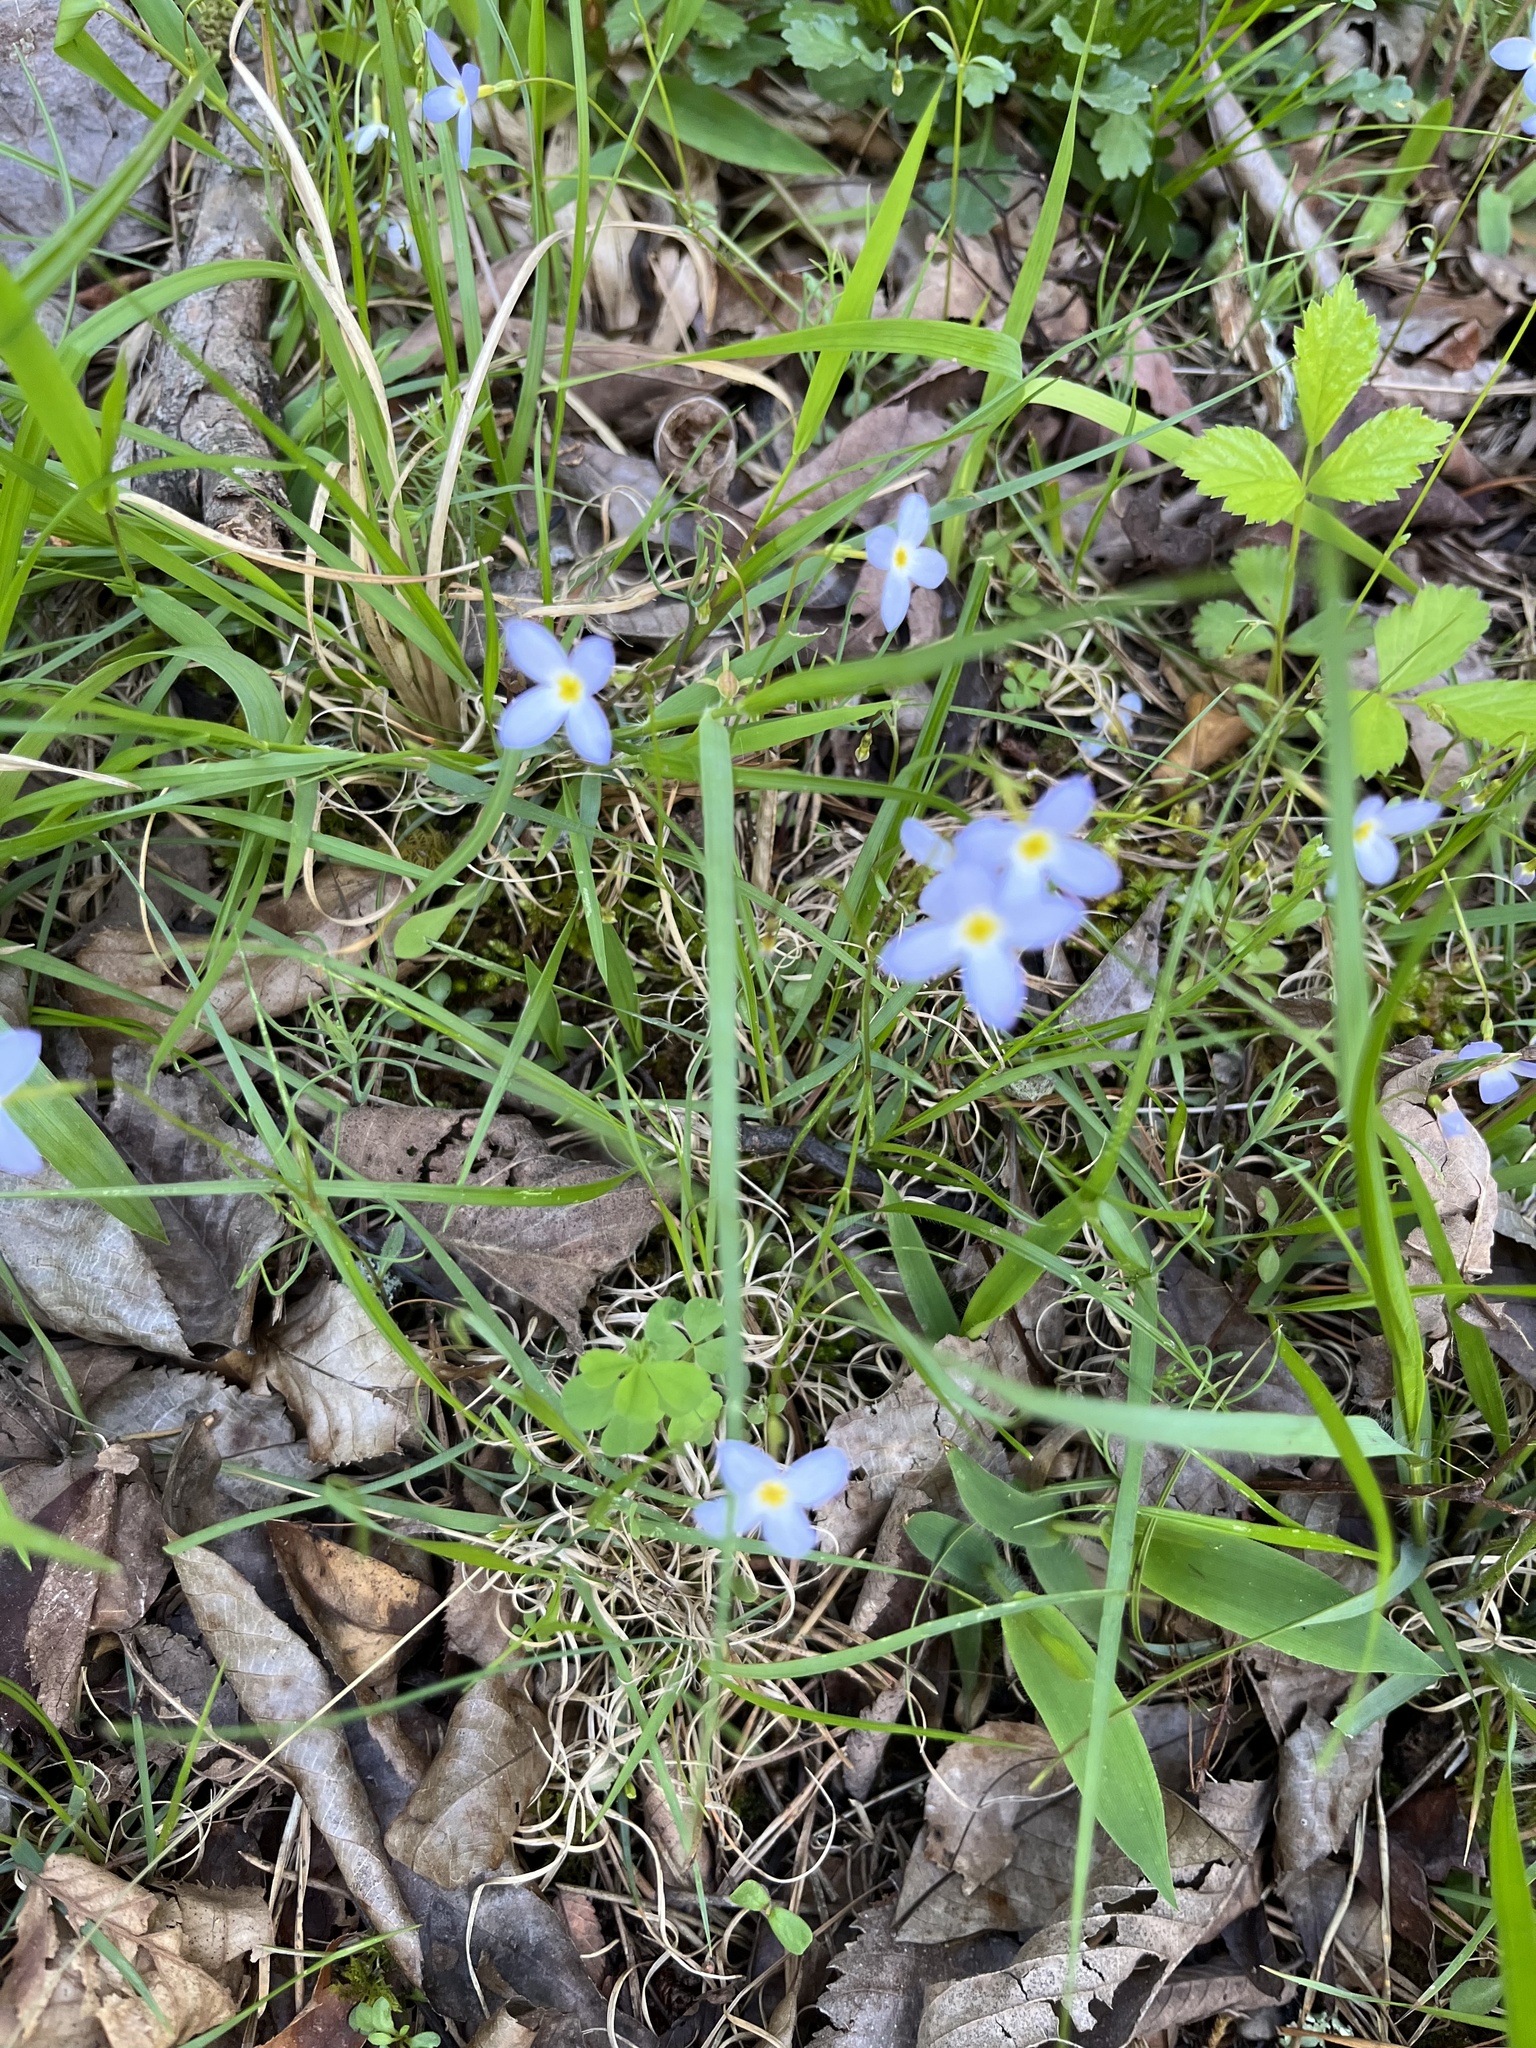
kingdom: Plantae
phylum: Tracheophyta
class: Magnoliopsida
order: Gentianales
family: Rubiaceae
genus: Houstonia
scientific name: Houstonia caerulea
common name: Bluets
